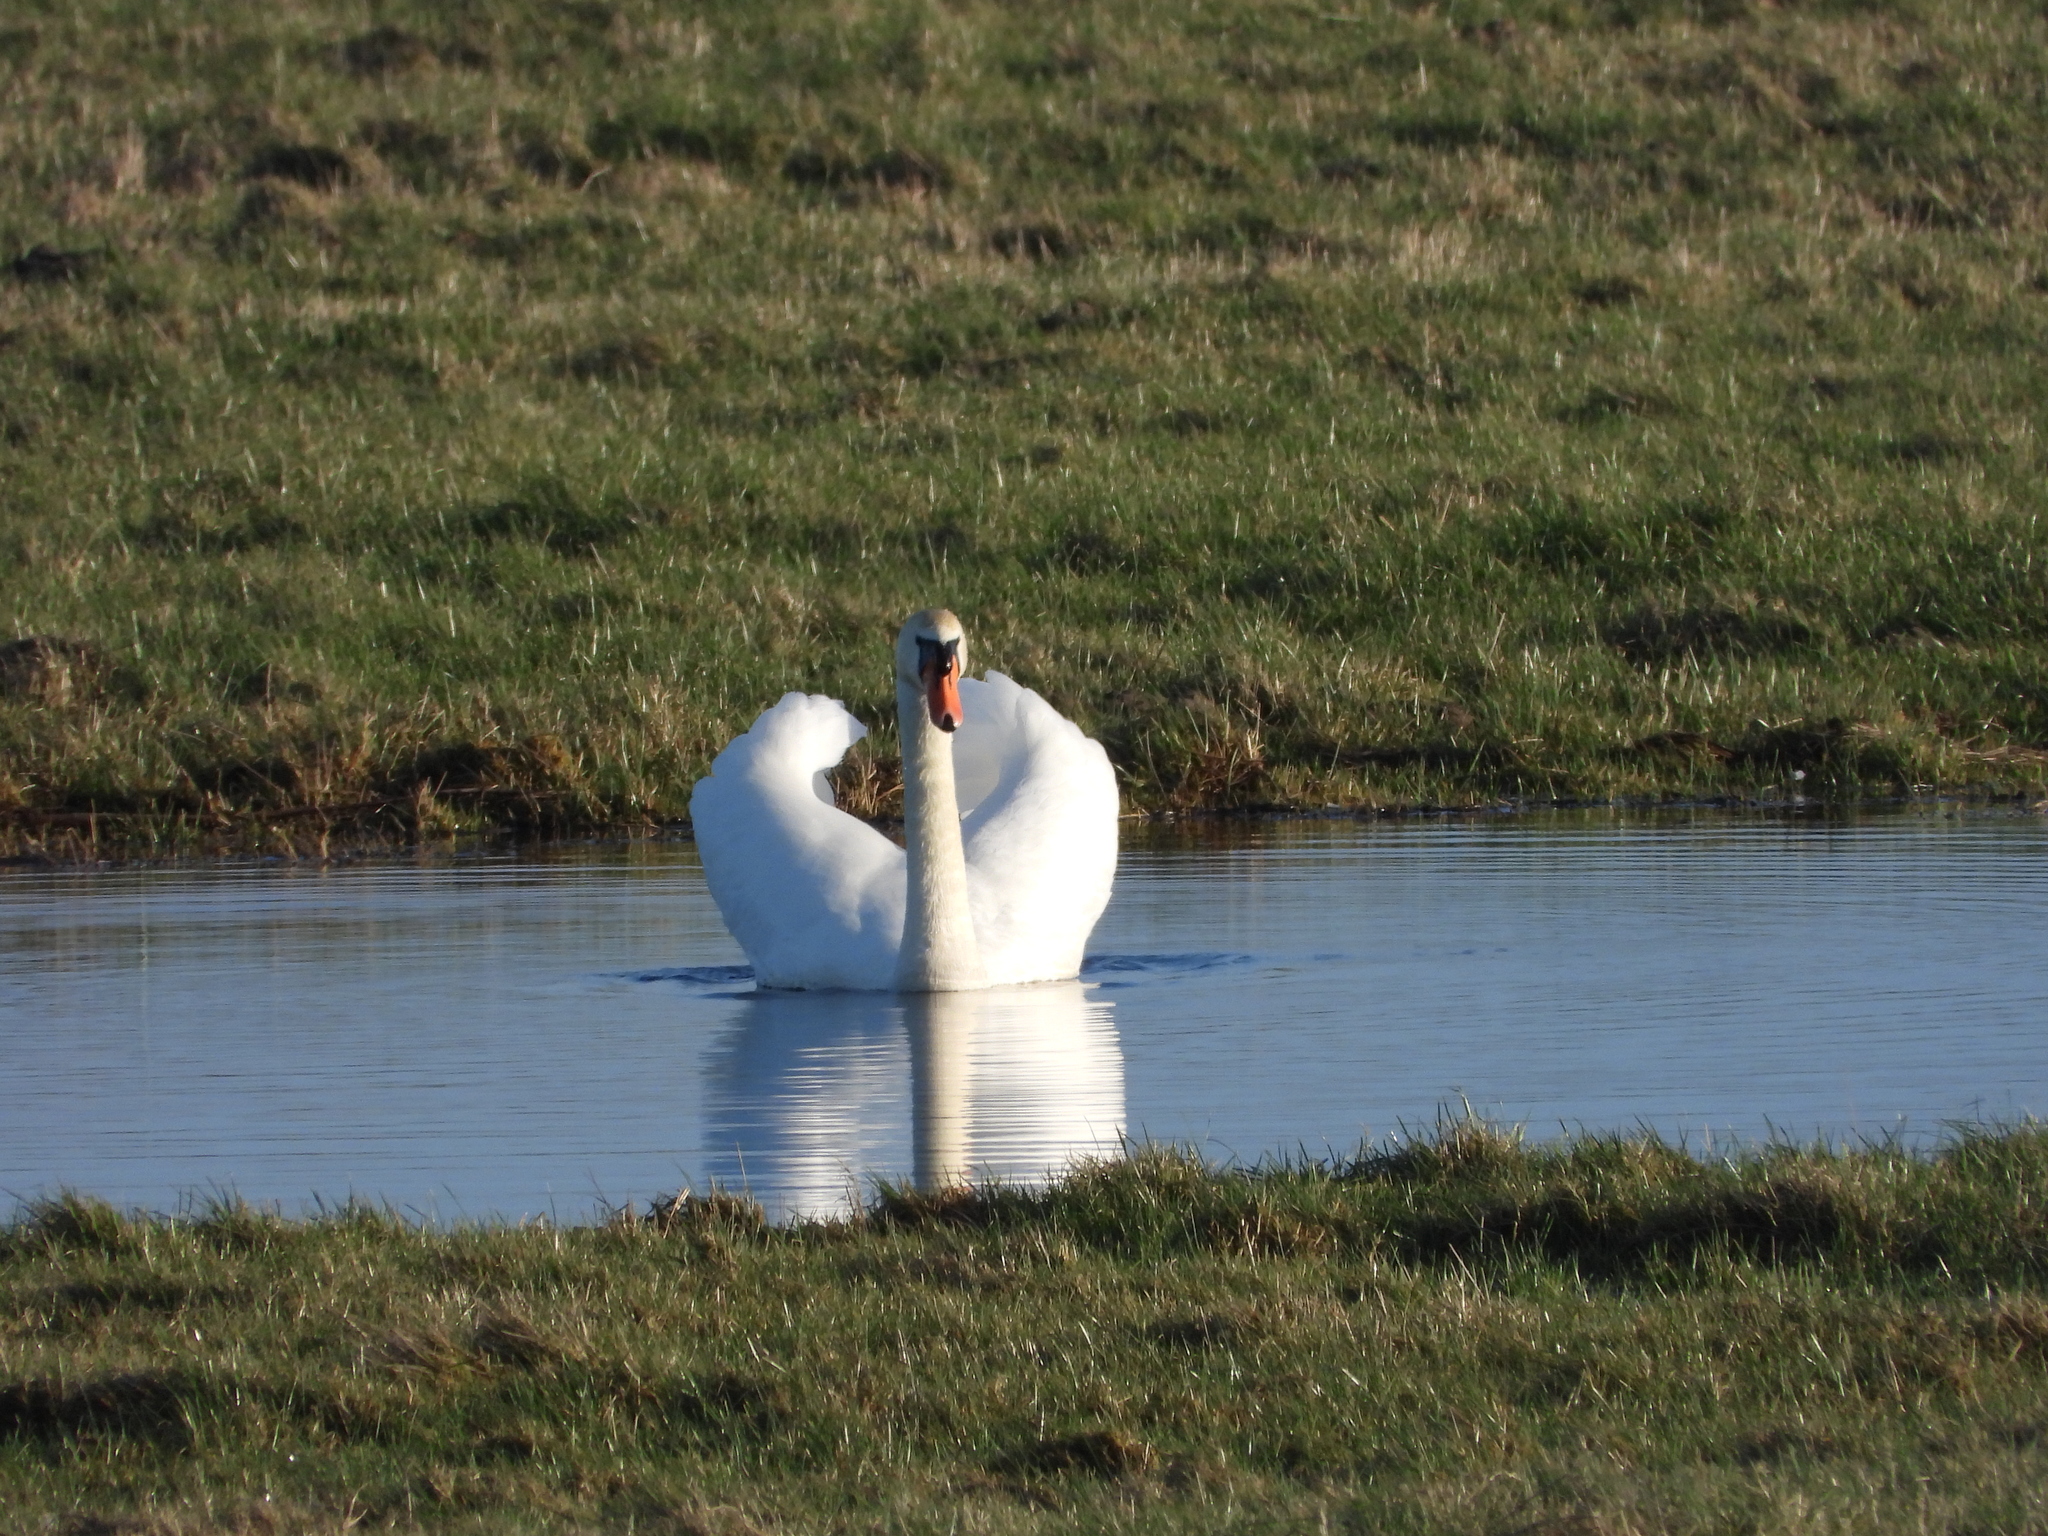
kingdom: Animalia
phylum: Chordata
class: Aves
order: Anseriformes
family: Anatidae
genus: Cygnus
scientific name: Cygnus olor
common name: Mute swan
